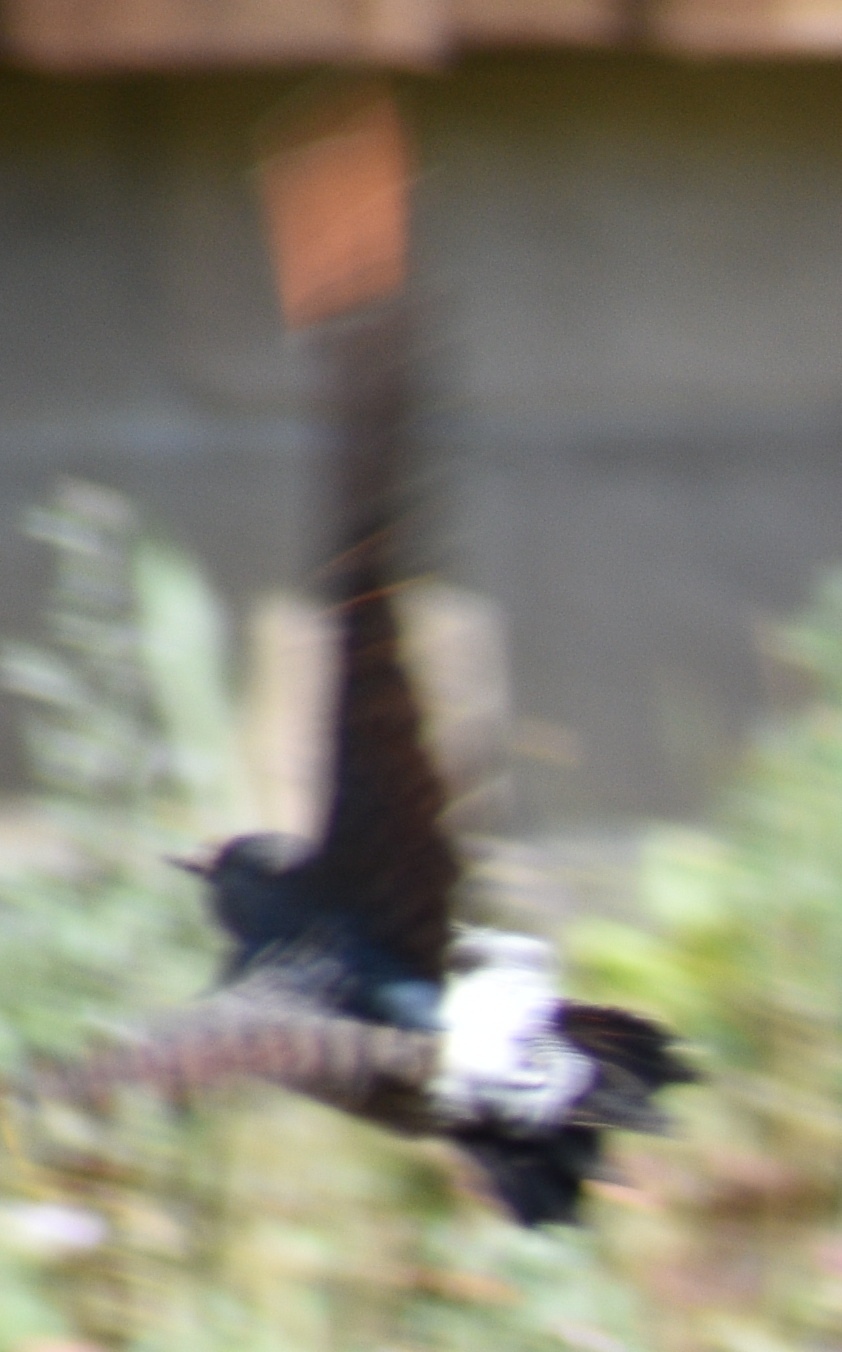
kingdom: Animalia
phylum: Chordata
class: Aves
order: Piciformes
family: Picidae
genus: Colaptes
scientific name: Colaptes auratus
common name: Northern flicker
